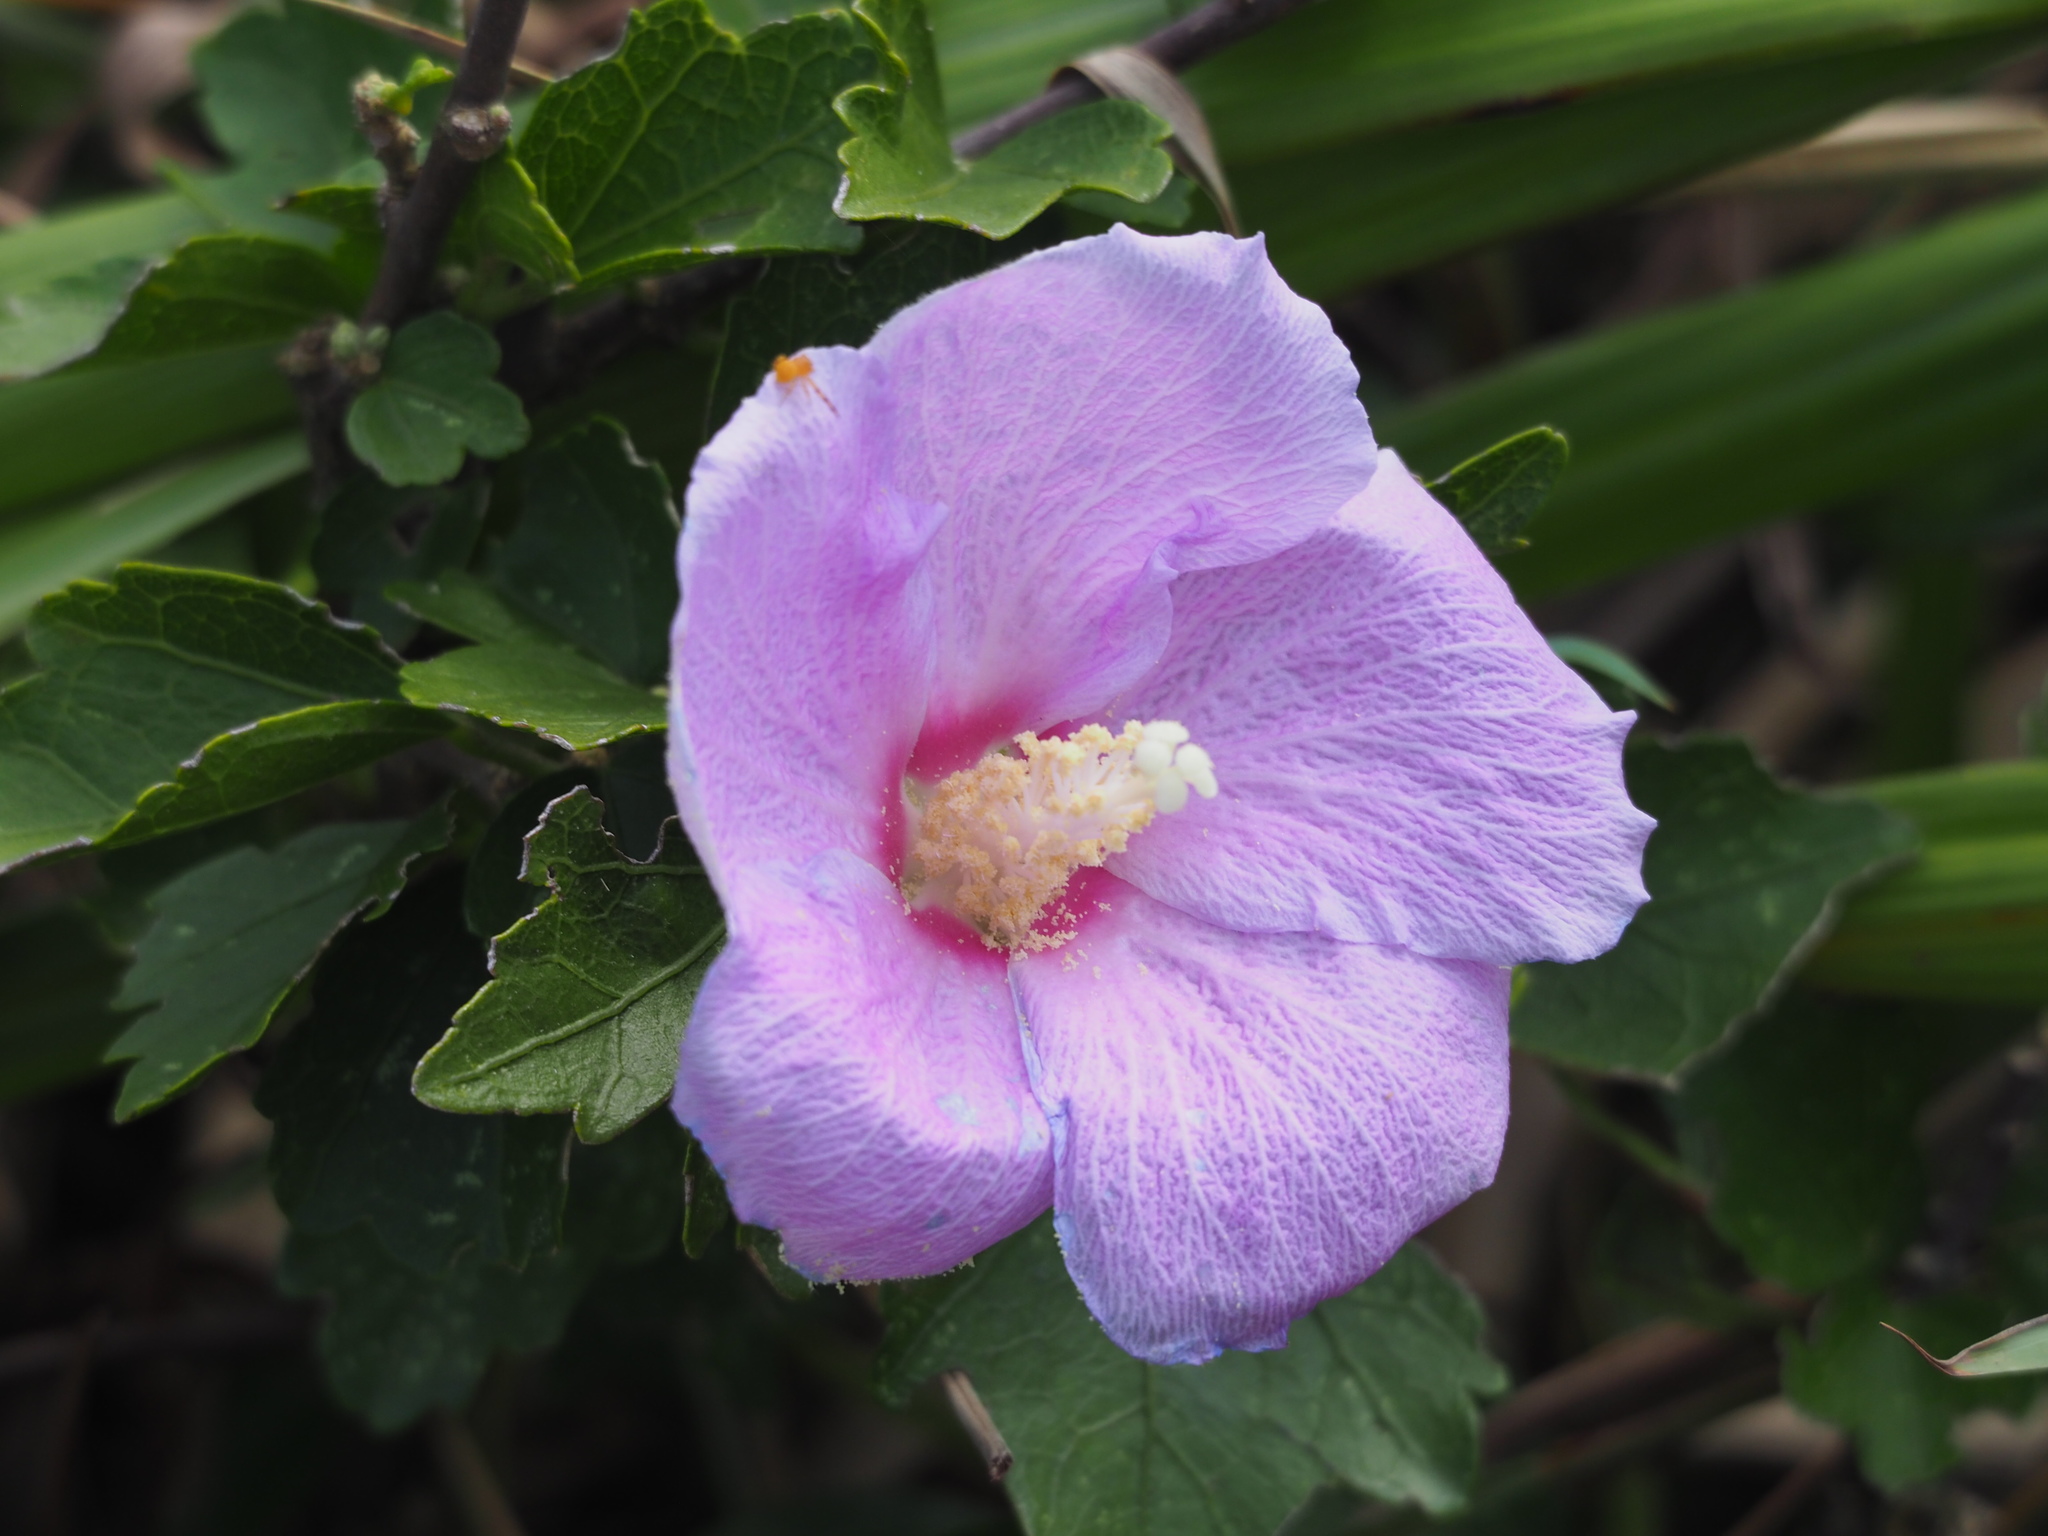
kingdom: Plantae
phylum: Tracheophyta
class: Magnoliopsida
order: Malvales
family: Malvaceae
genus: Hibiscus
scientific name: Hibiscus syriacus
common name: Syrian ketmia
